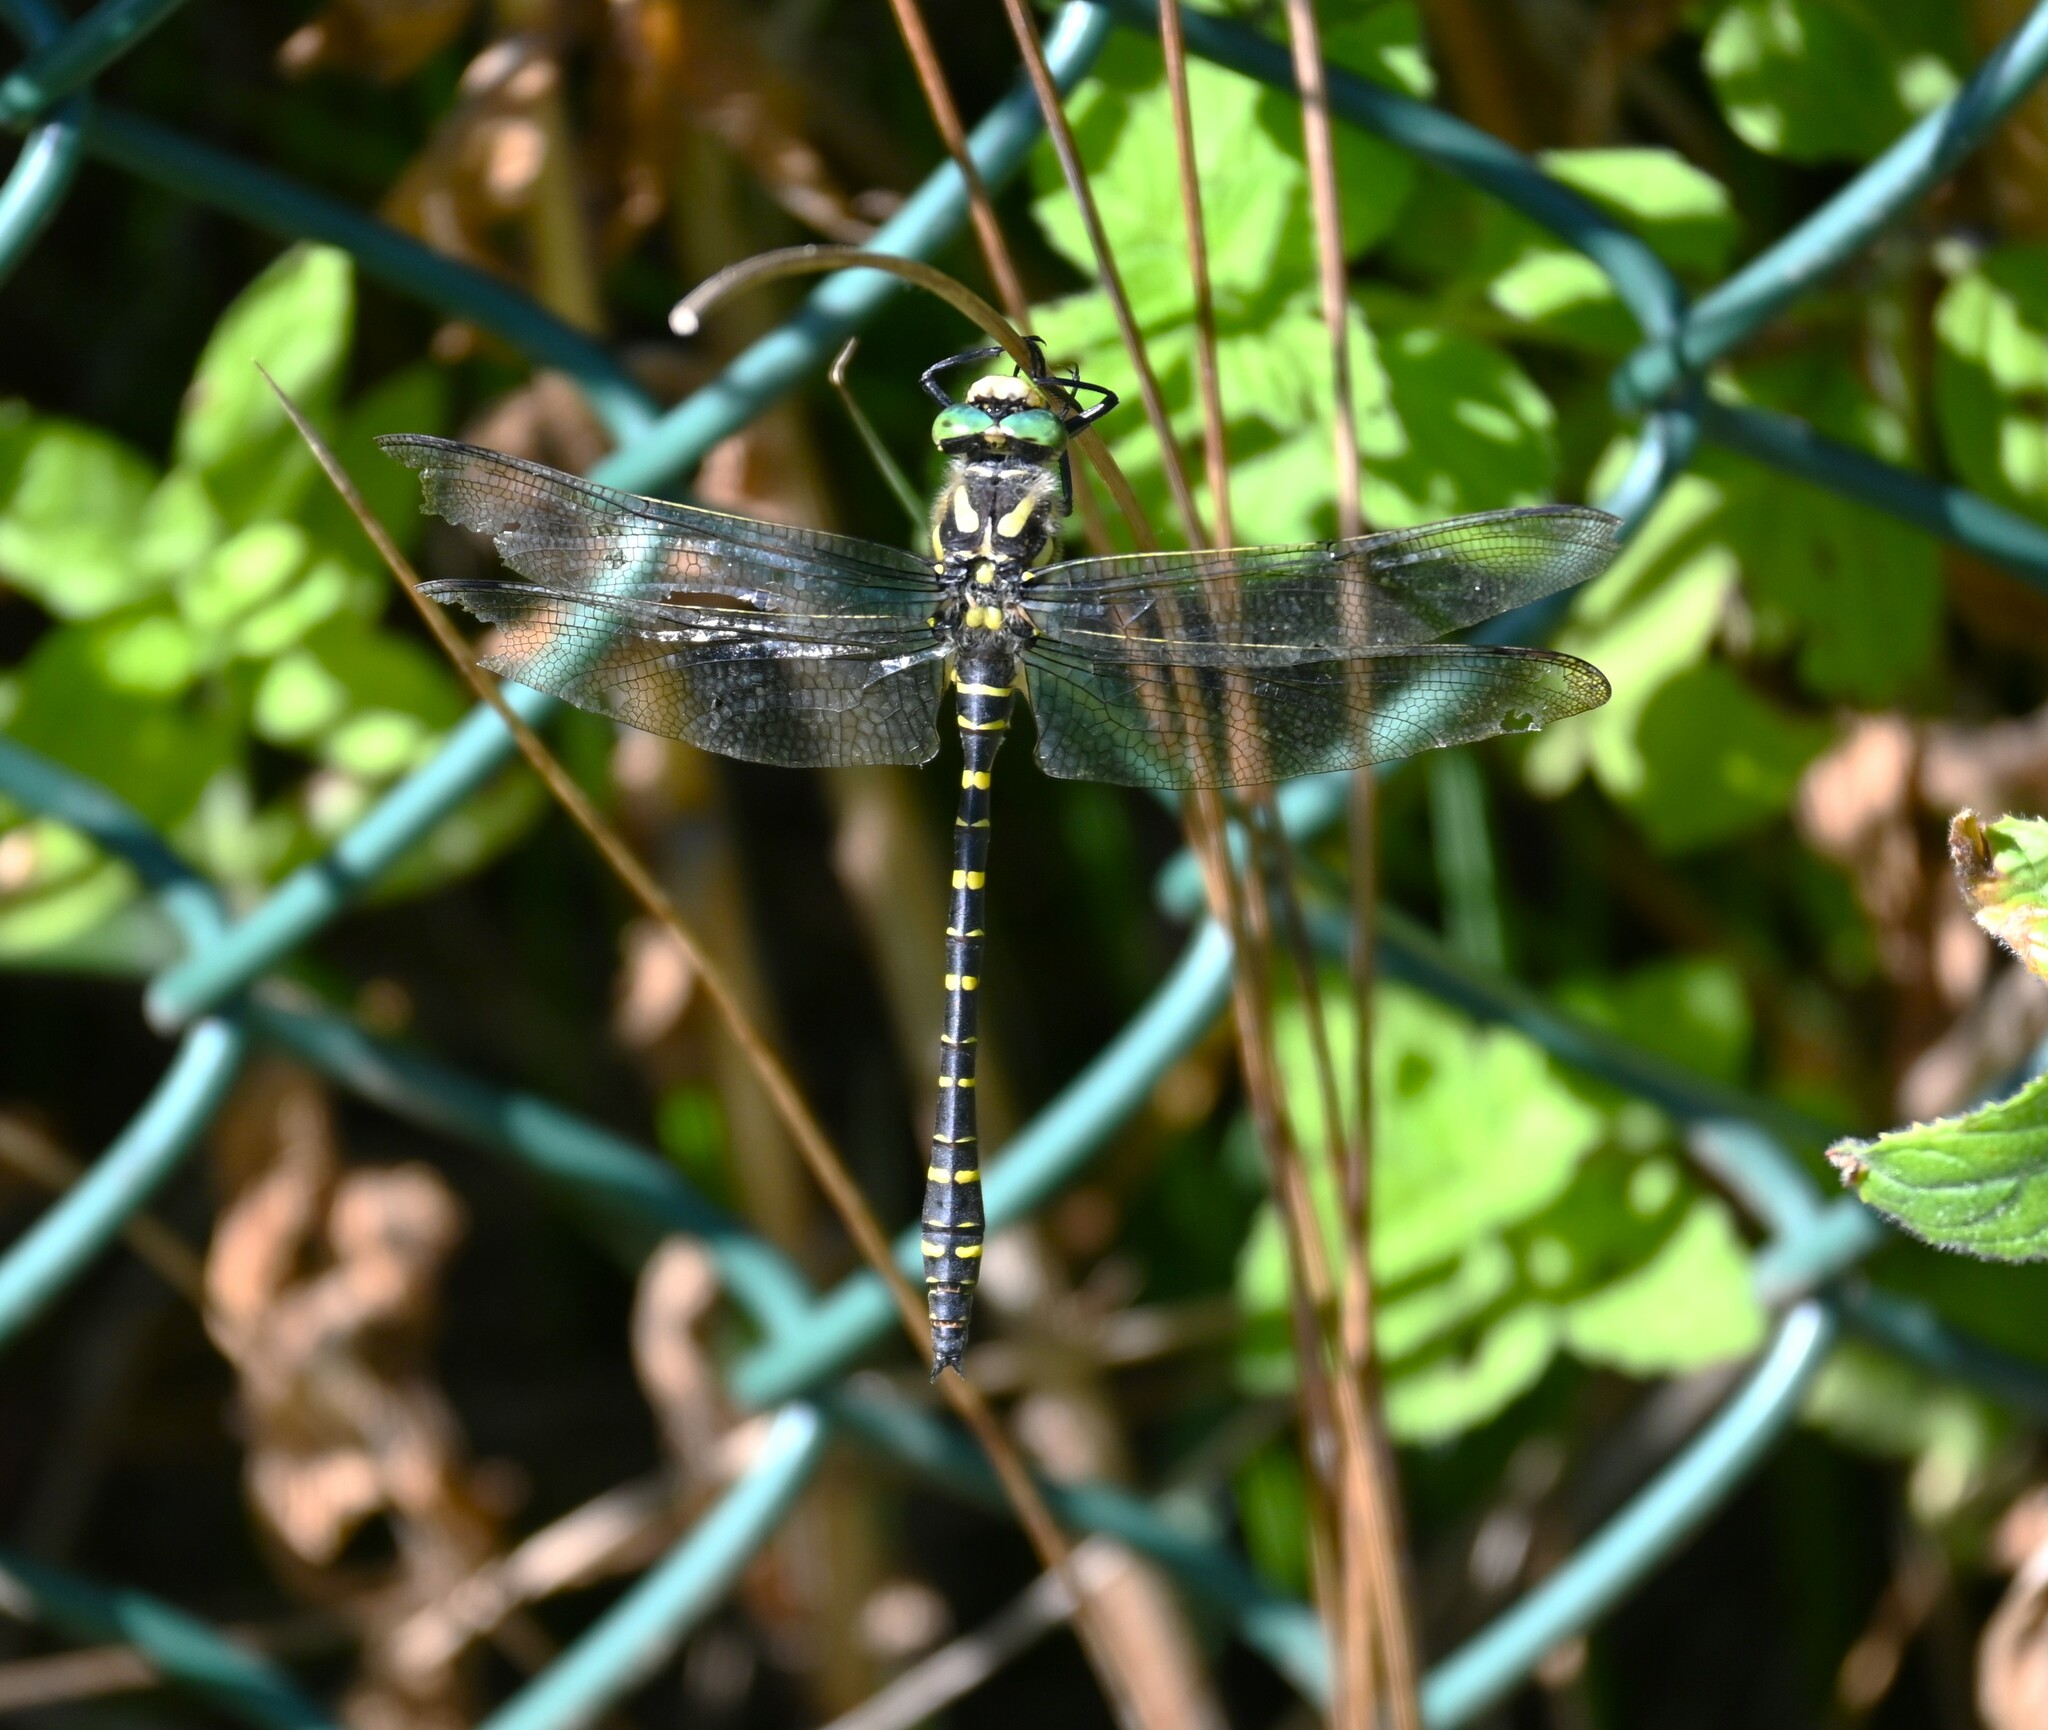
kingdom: Animalia
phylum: Arthropoda
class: Insecta
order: Odonata
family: Cordulegastridae
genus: Cordulegaster
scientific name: Cordulegaster boltonii
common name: Golden-ringed dragonfly
